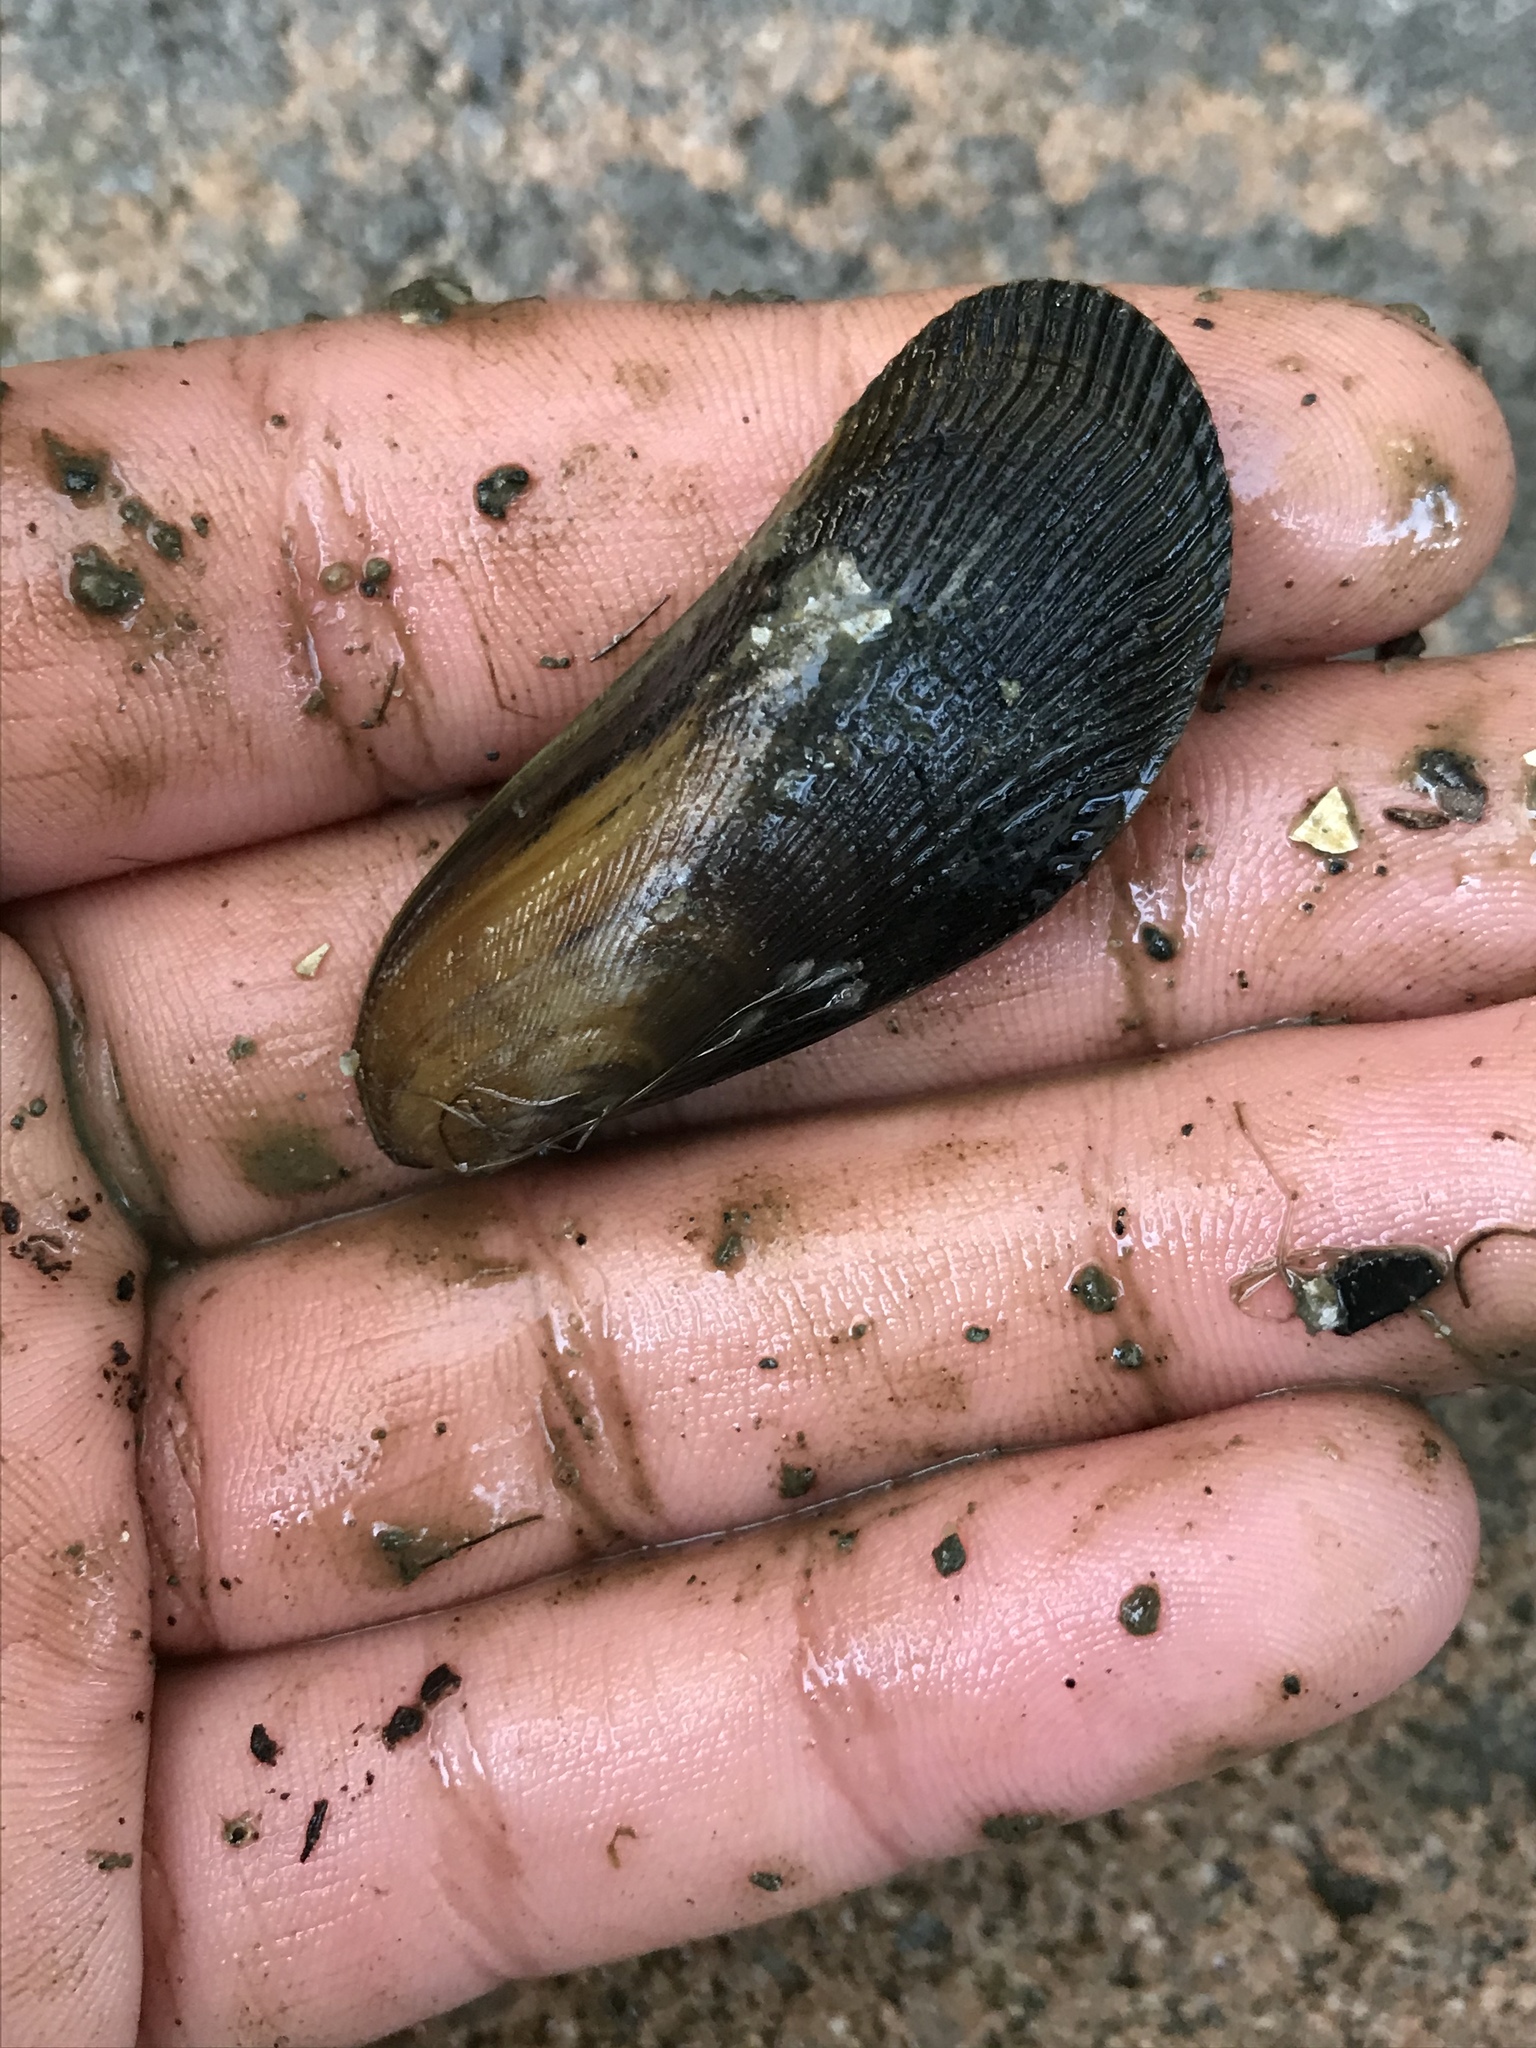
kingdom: Animalia
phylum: Mollusca
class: Bivalvia
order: Mytilida
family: Mytilidae
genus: Geukensia
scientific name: Geukensia demissa
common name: Ribbed mussel
